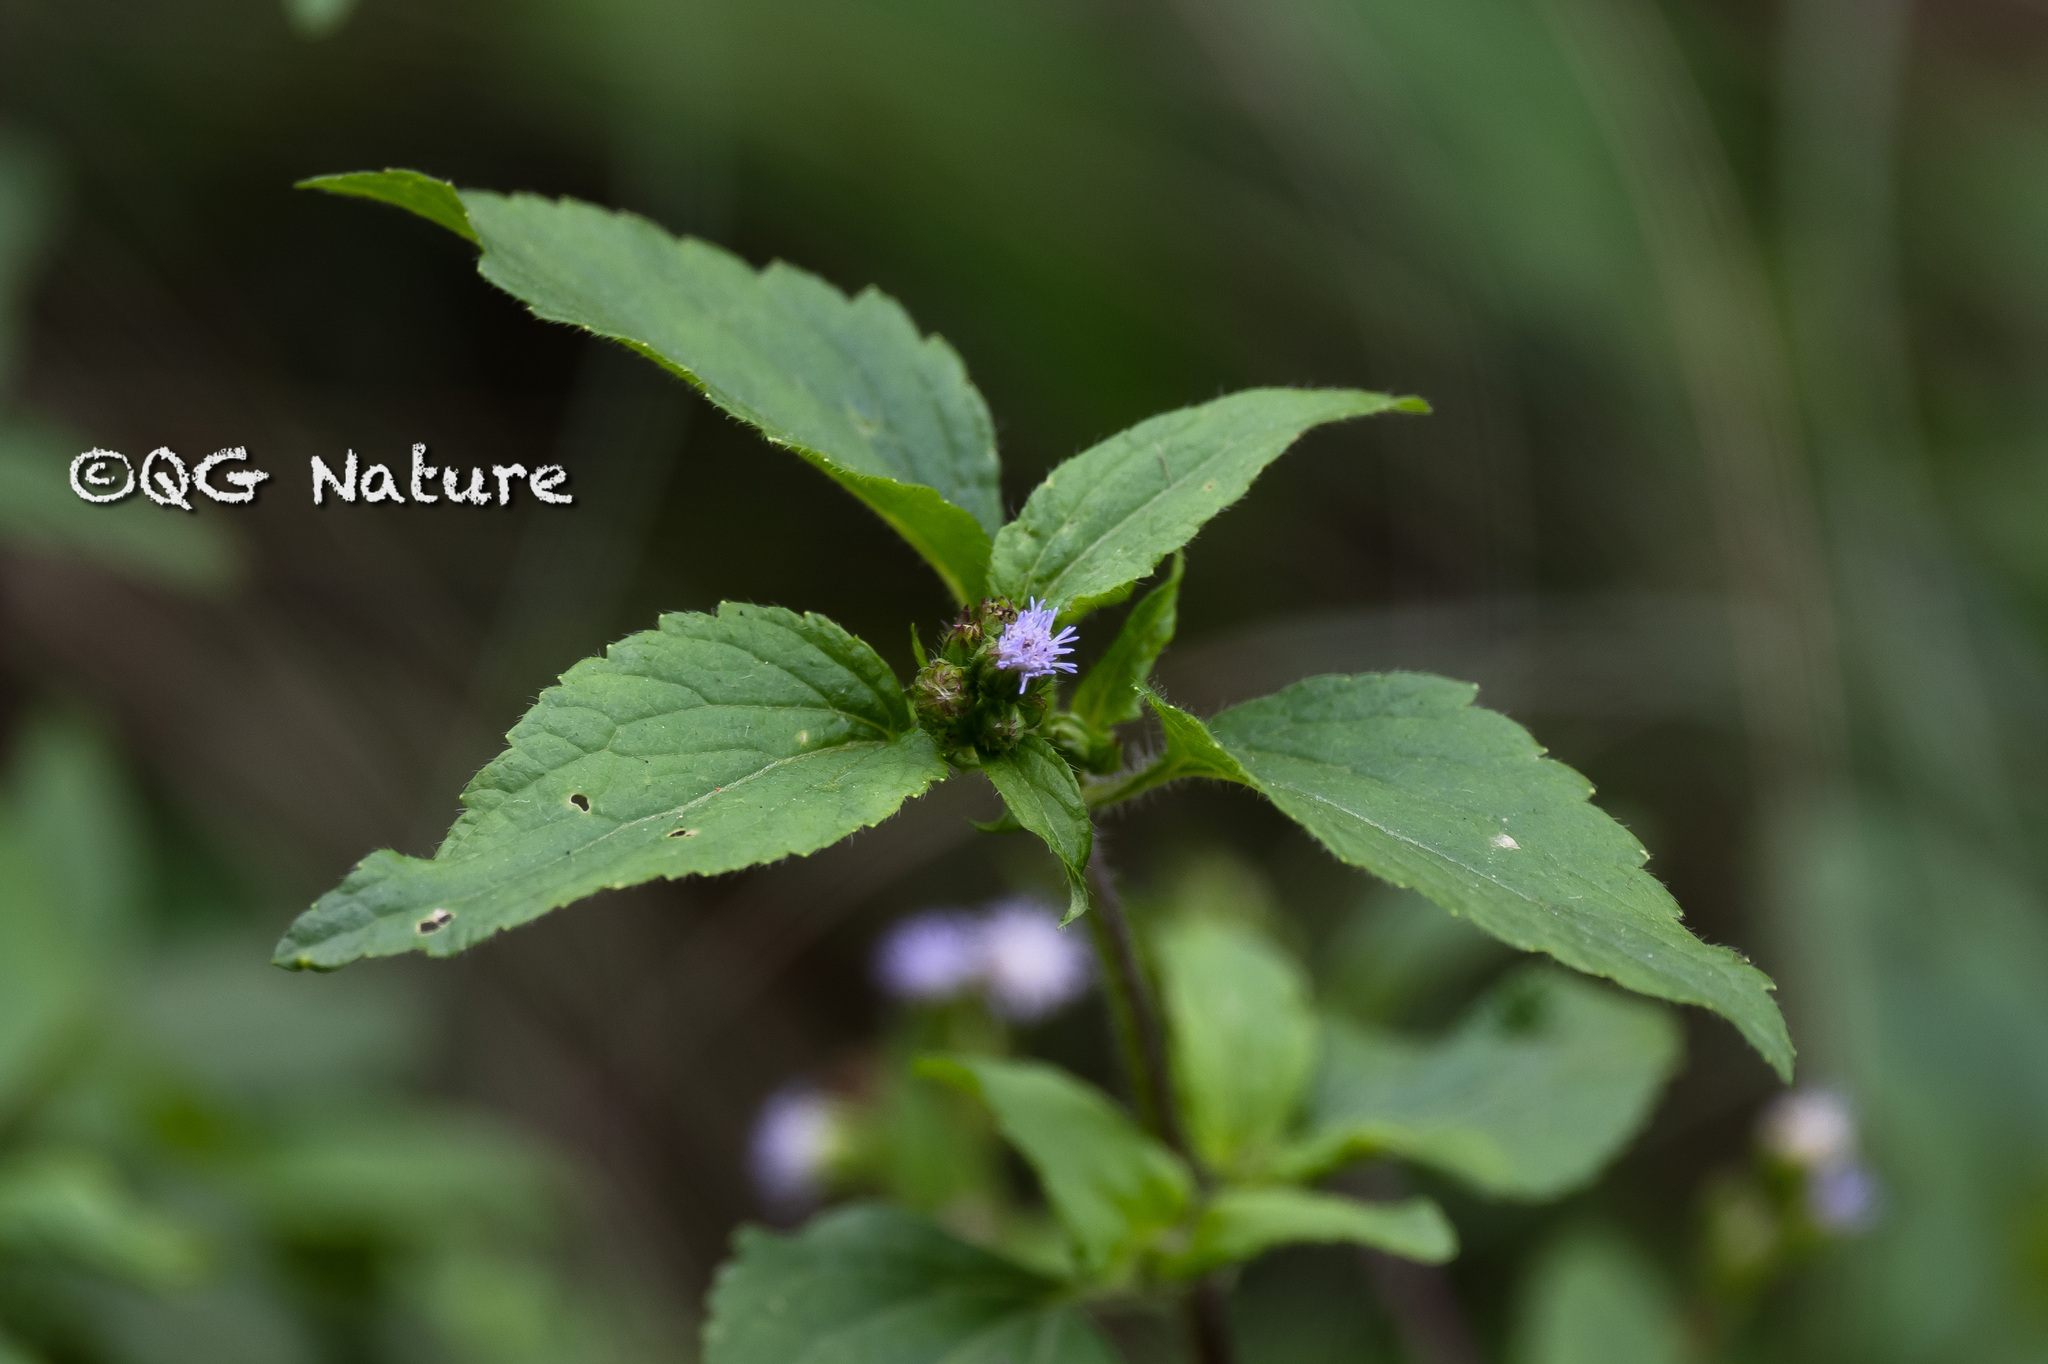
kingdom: Plantae
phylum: Tracheophyta
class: Magnoliopsida
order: Asterales
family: Asteraceae
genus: Praxelis
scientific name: Praxelis clematidea
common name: Praxelis
